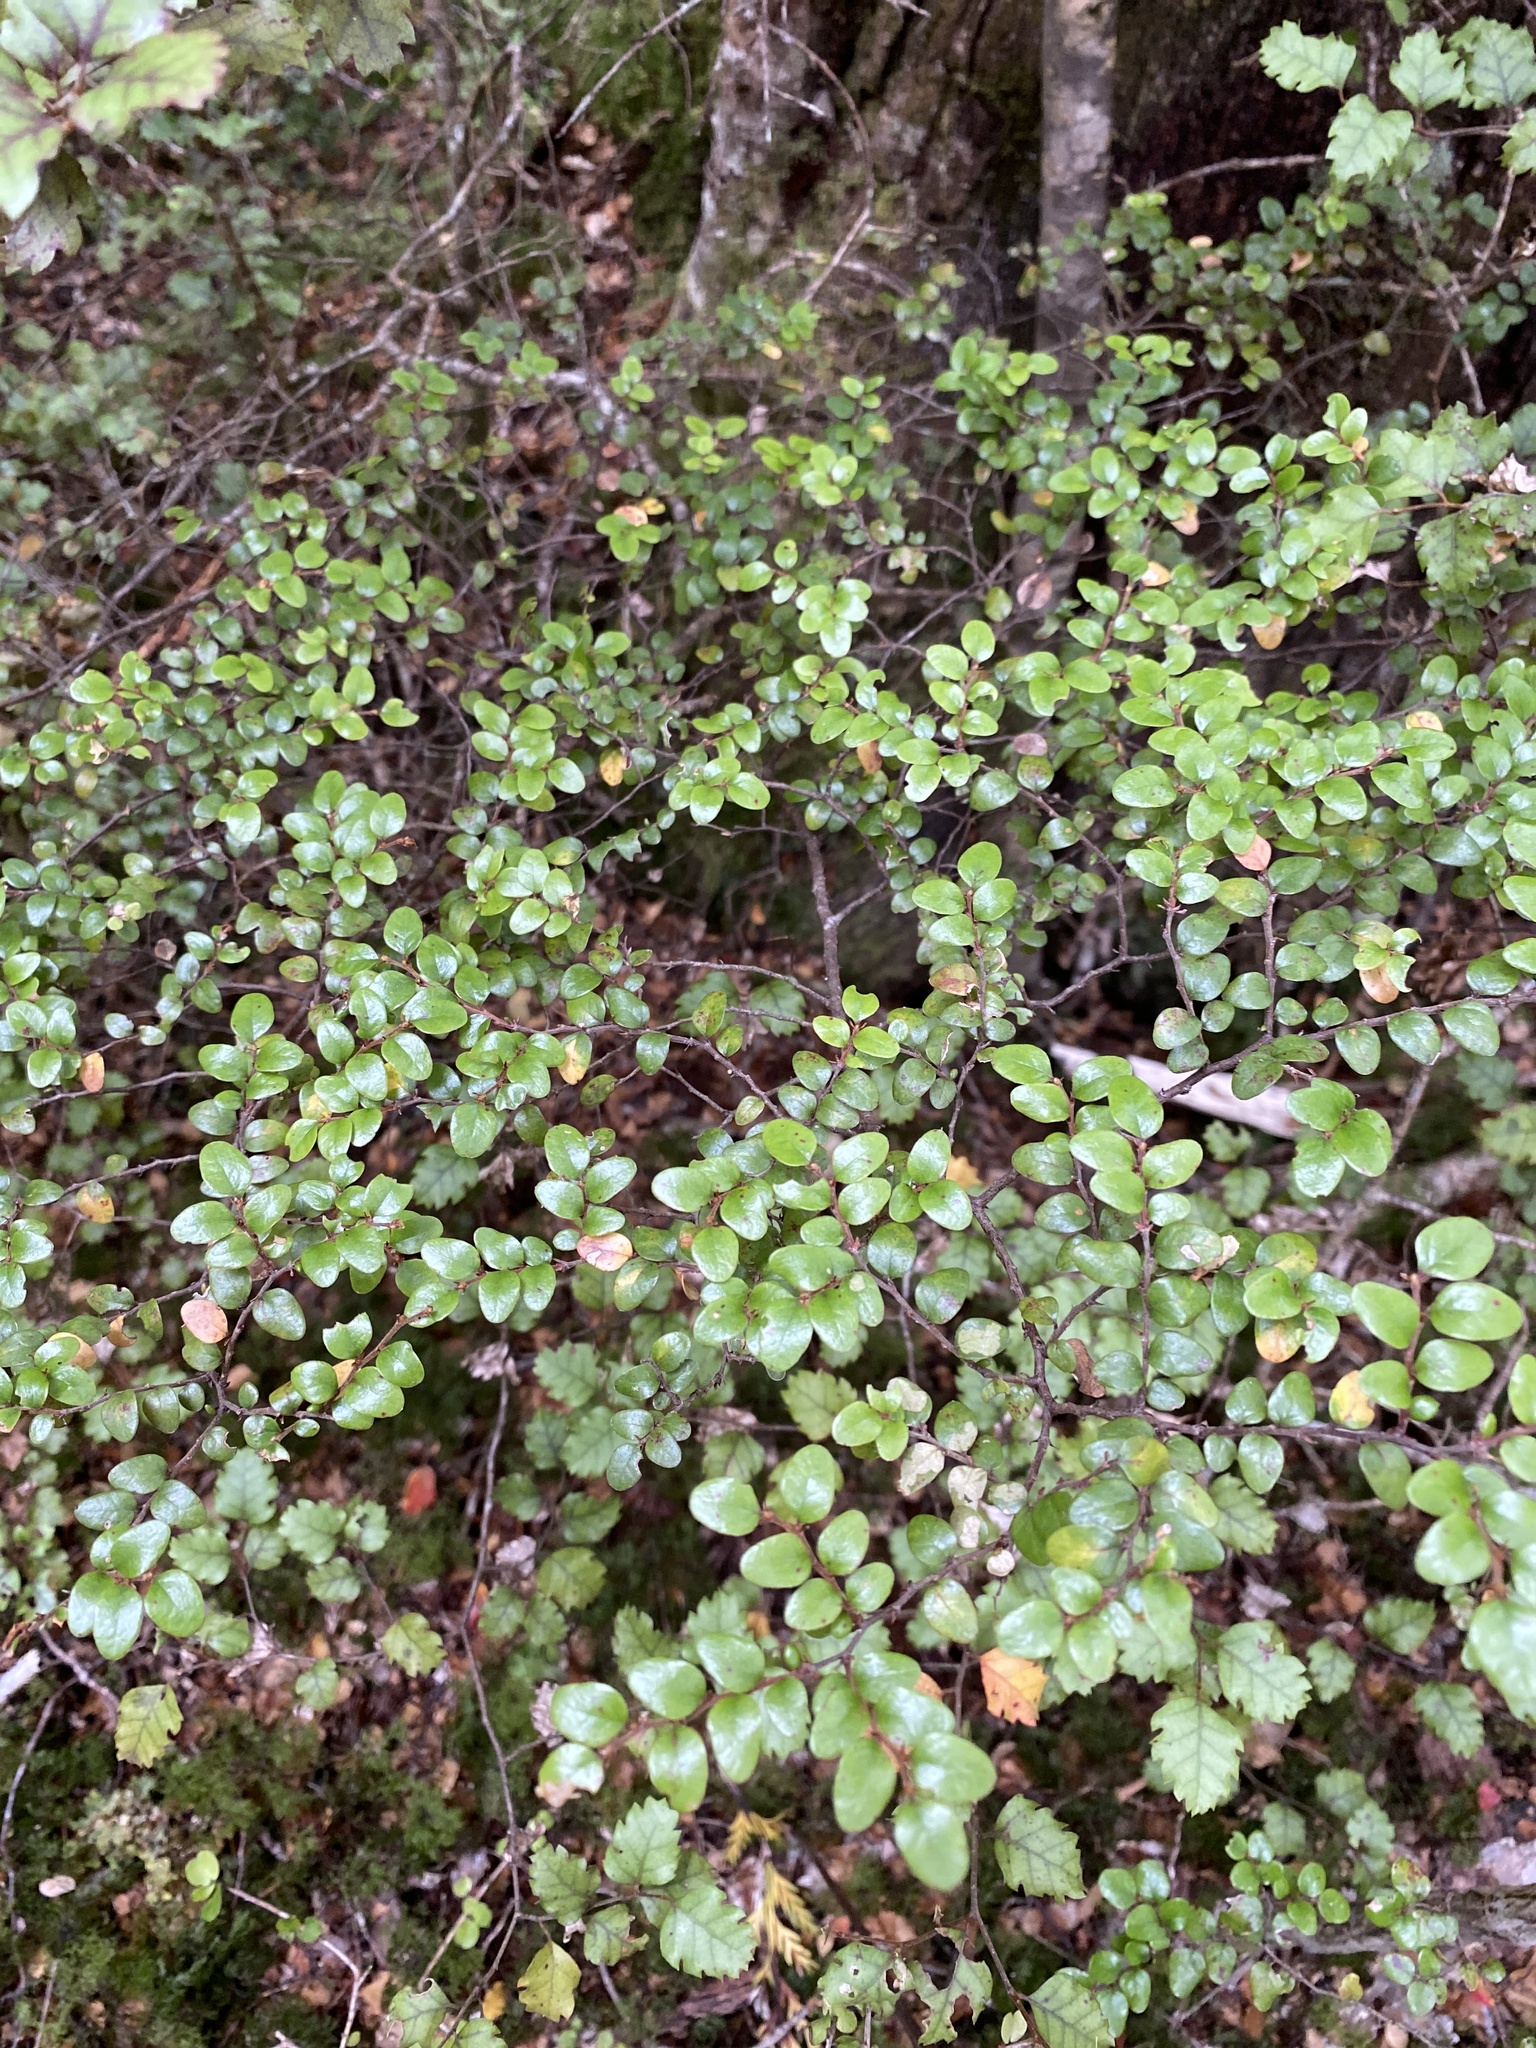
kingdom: Plantae
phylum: Tracheophyta
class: Magnoliopsida
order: Fagales
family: Nothofagaceae
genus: Nothofagus
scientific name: Nothofagus cliffortioides
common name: Mountain beech
